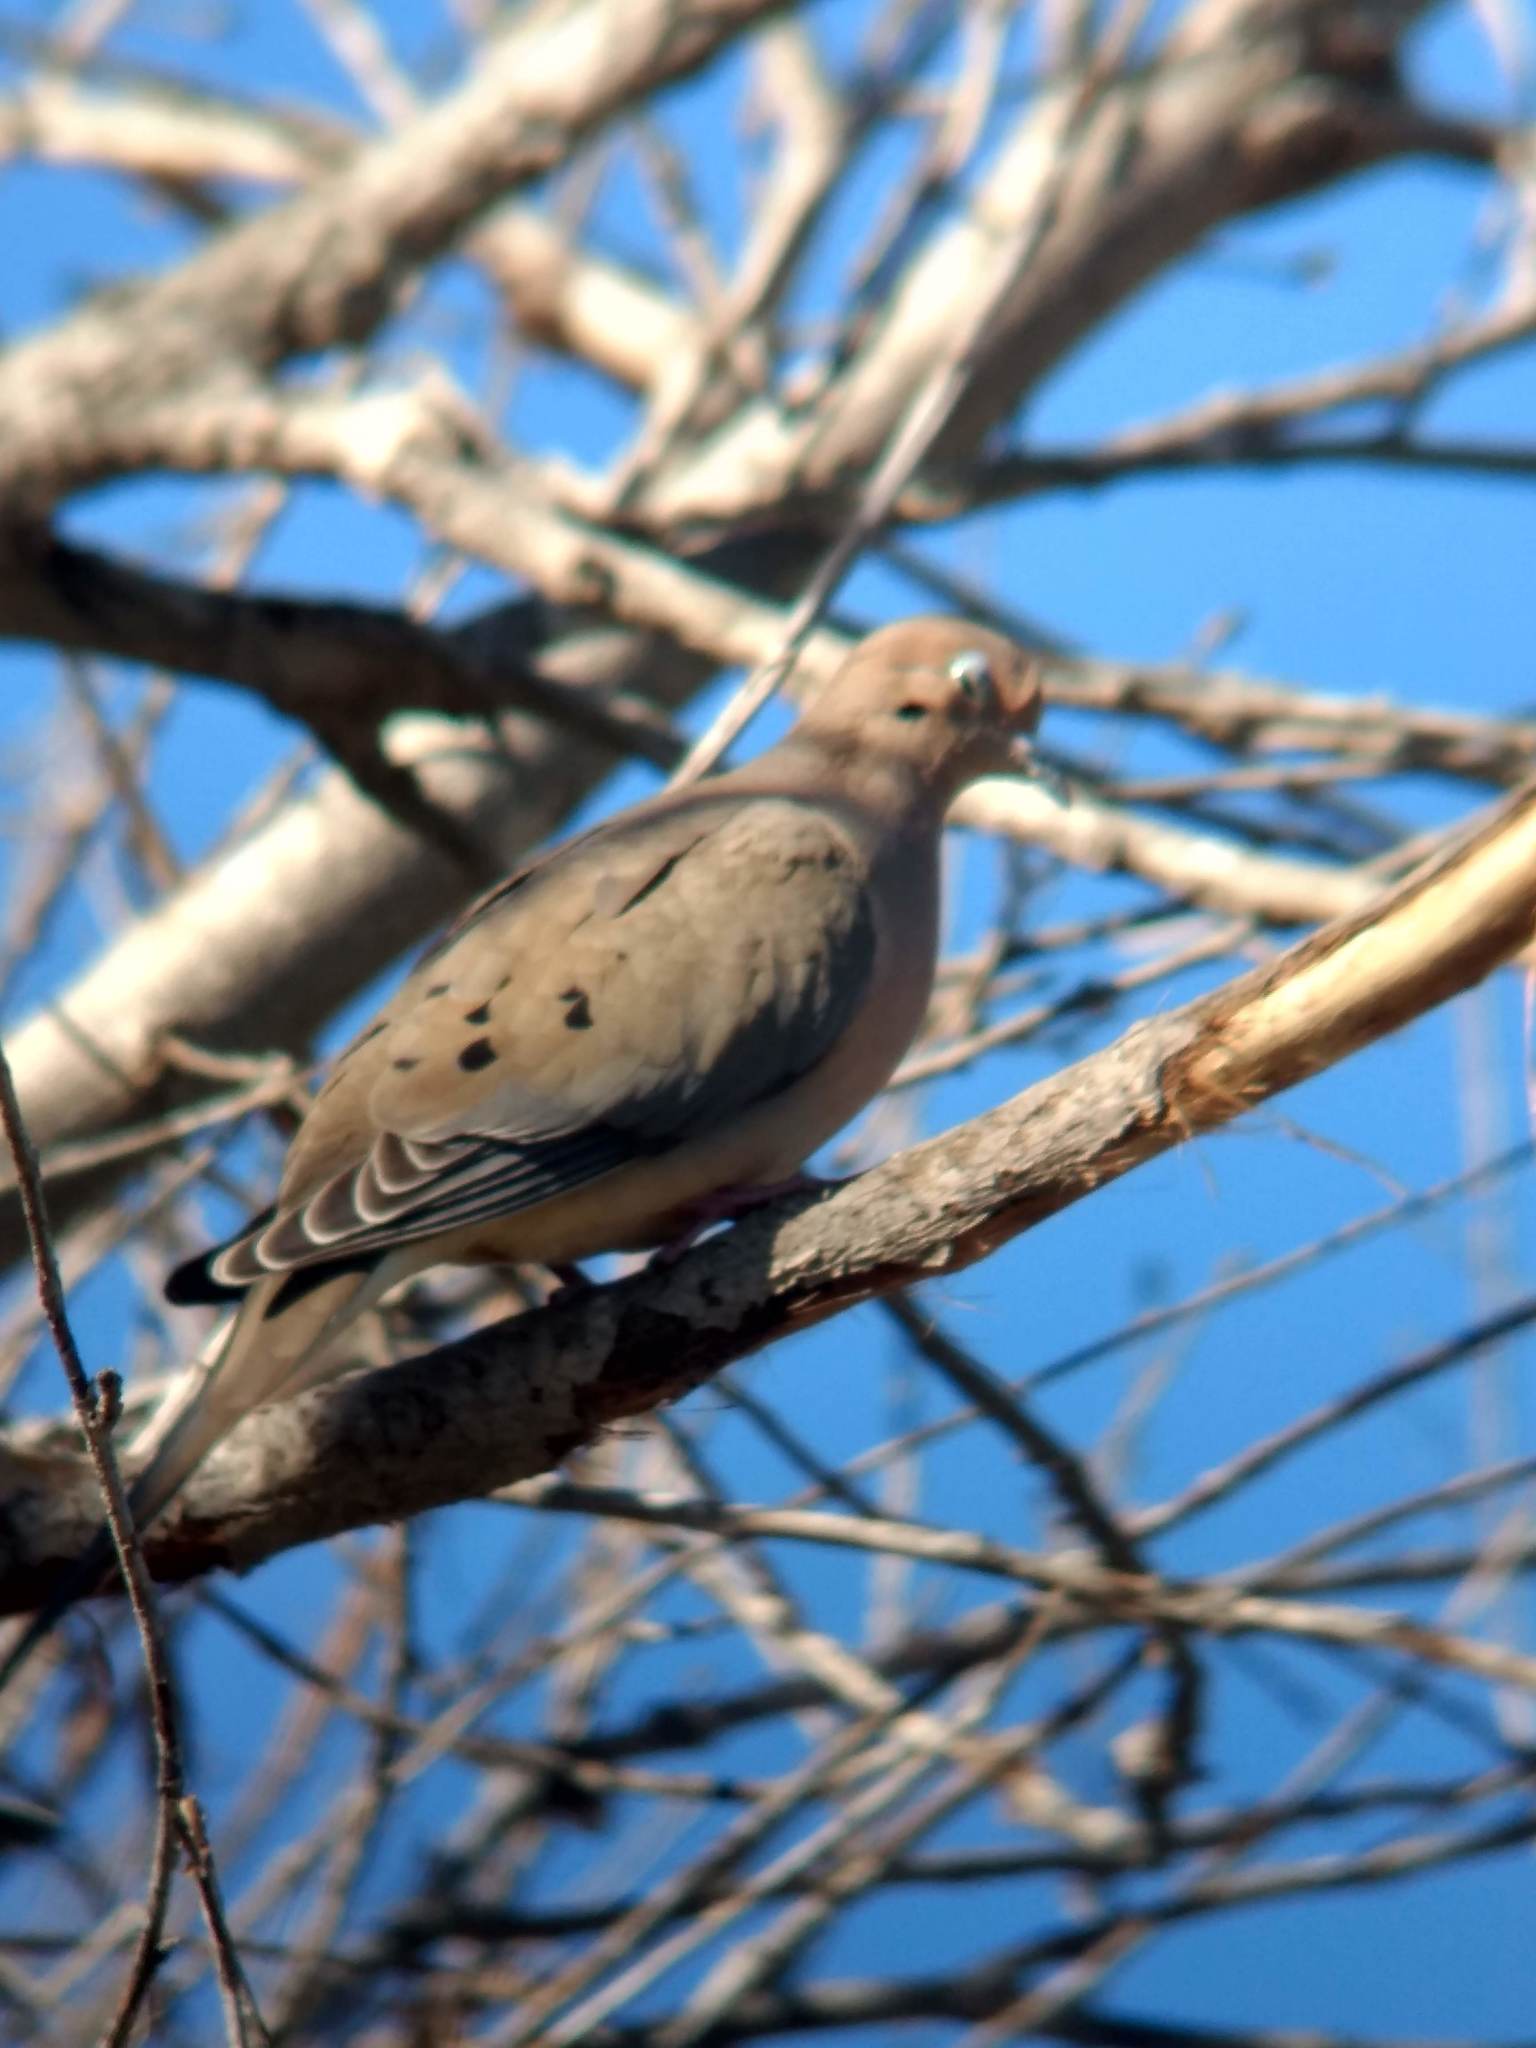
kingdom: Animalia
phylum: Chordata
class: Aves
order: Columbiformes
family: Columbidae
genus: Zenaida
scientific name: Zenaida macroura
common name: Mourning dove
